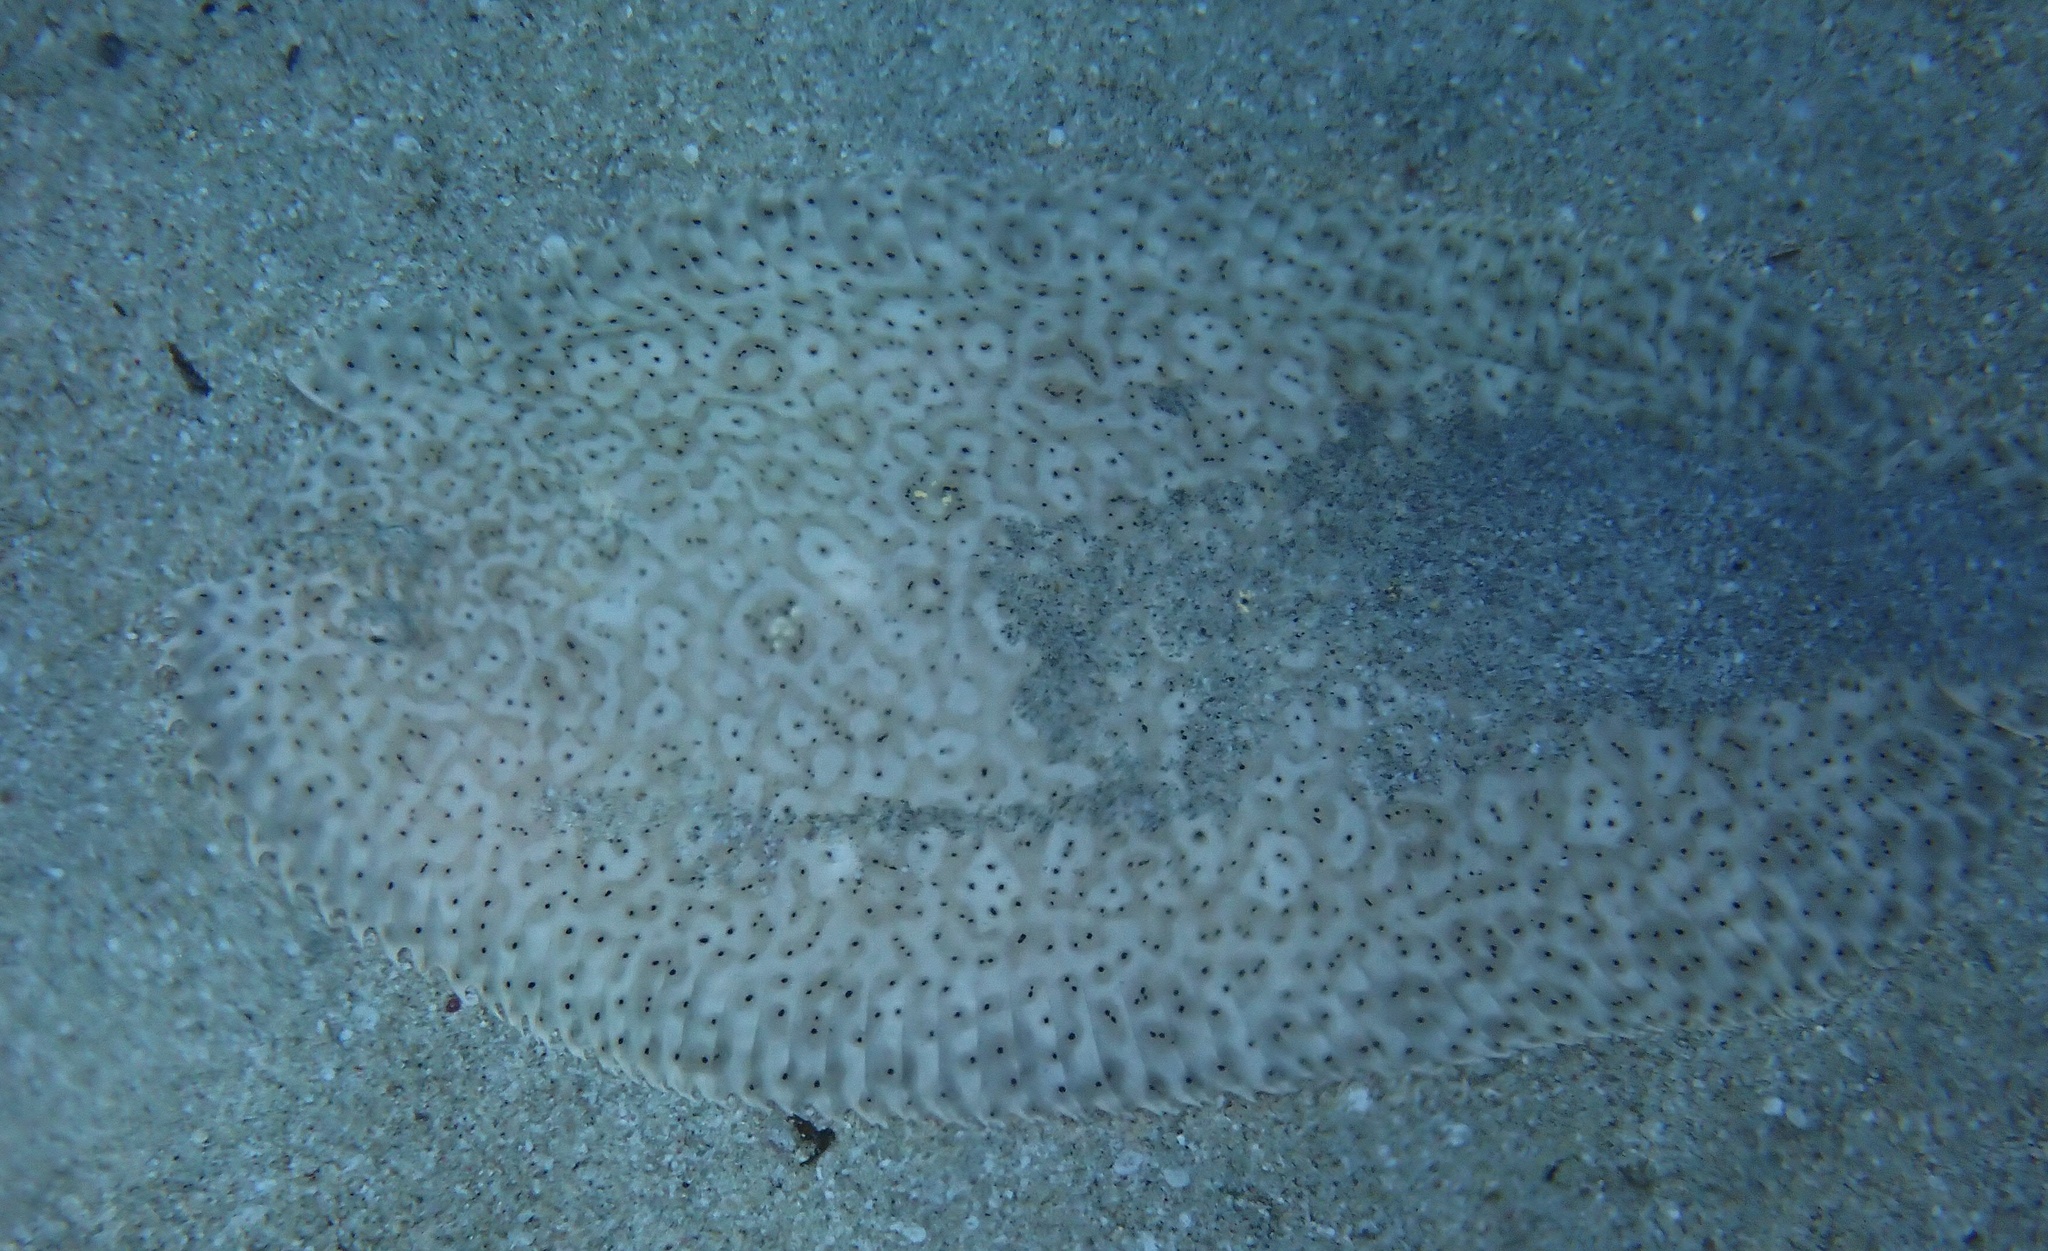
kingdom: Animalia
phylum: Chordata
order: Pleuronectiformes
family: Soleidae
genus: Pardachirus
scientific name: Pardachirus marmoratus
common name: Finless sole
